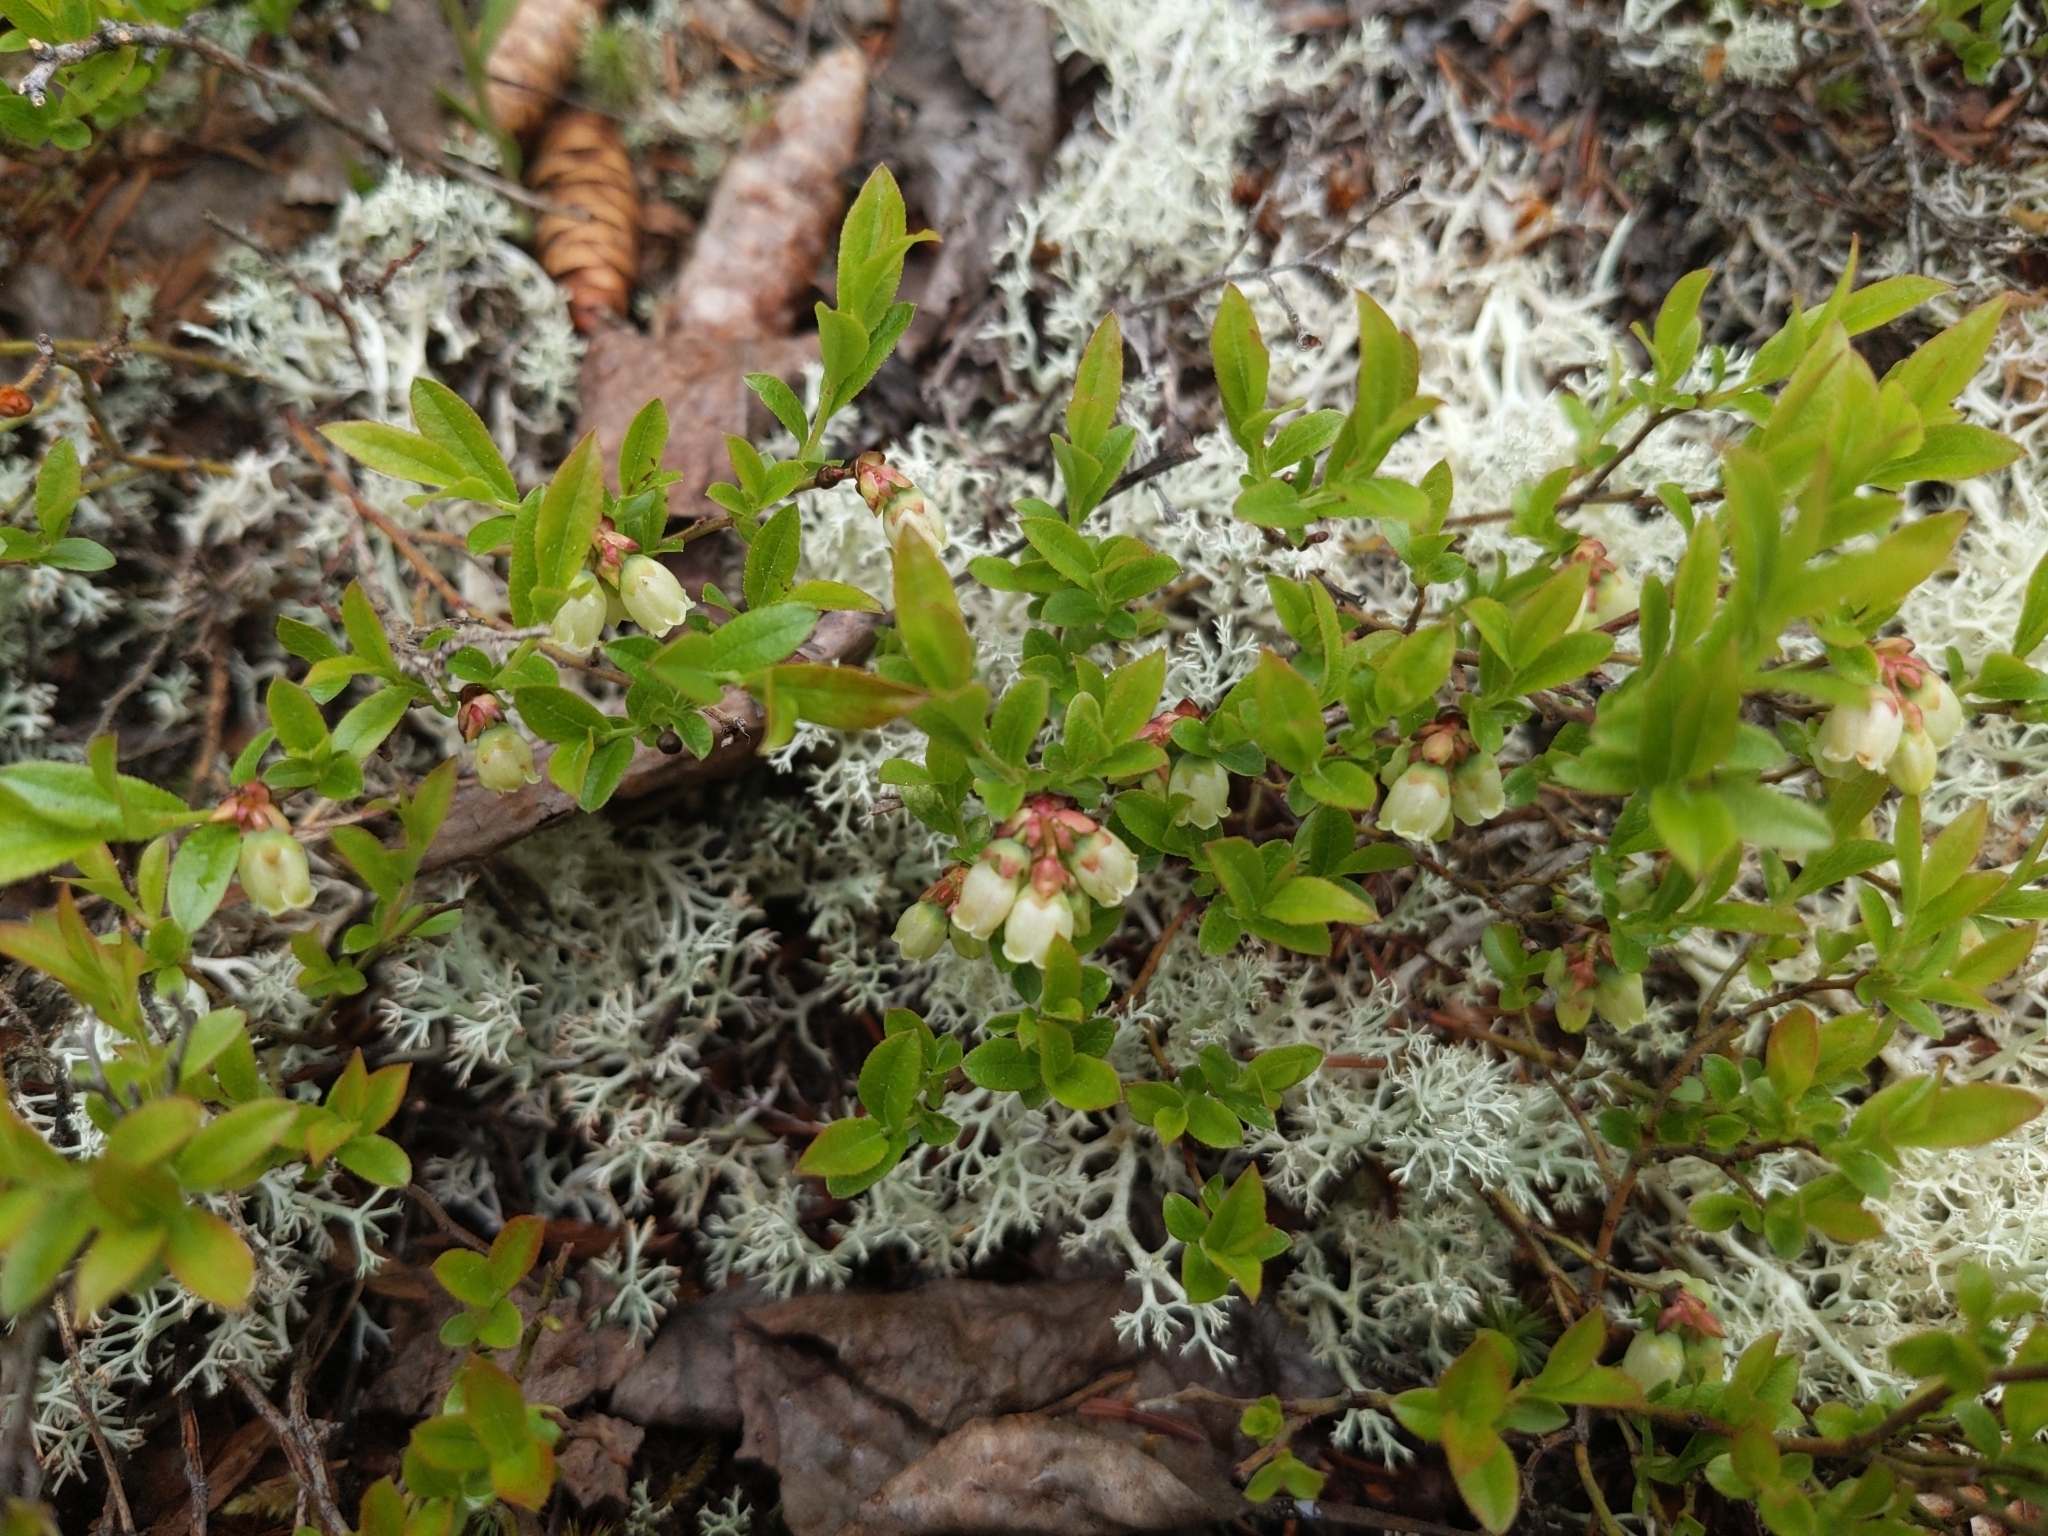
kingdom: Plantae
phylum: Tracheophyta
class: Magnoliopsida
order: Ericales
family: Ericaceae
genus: Vaccinium
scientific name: Vaccinium boreale
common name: Northern blueberry
